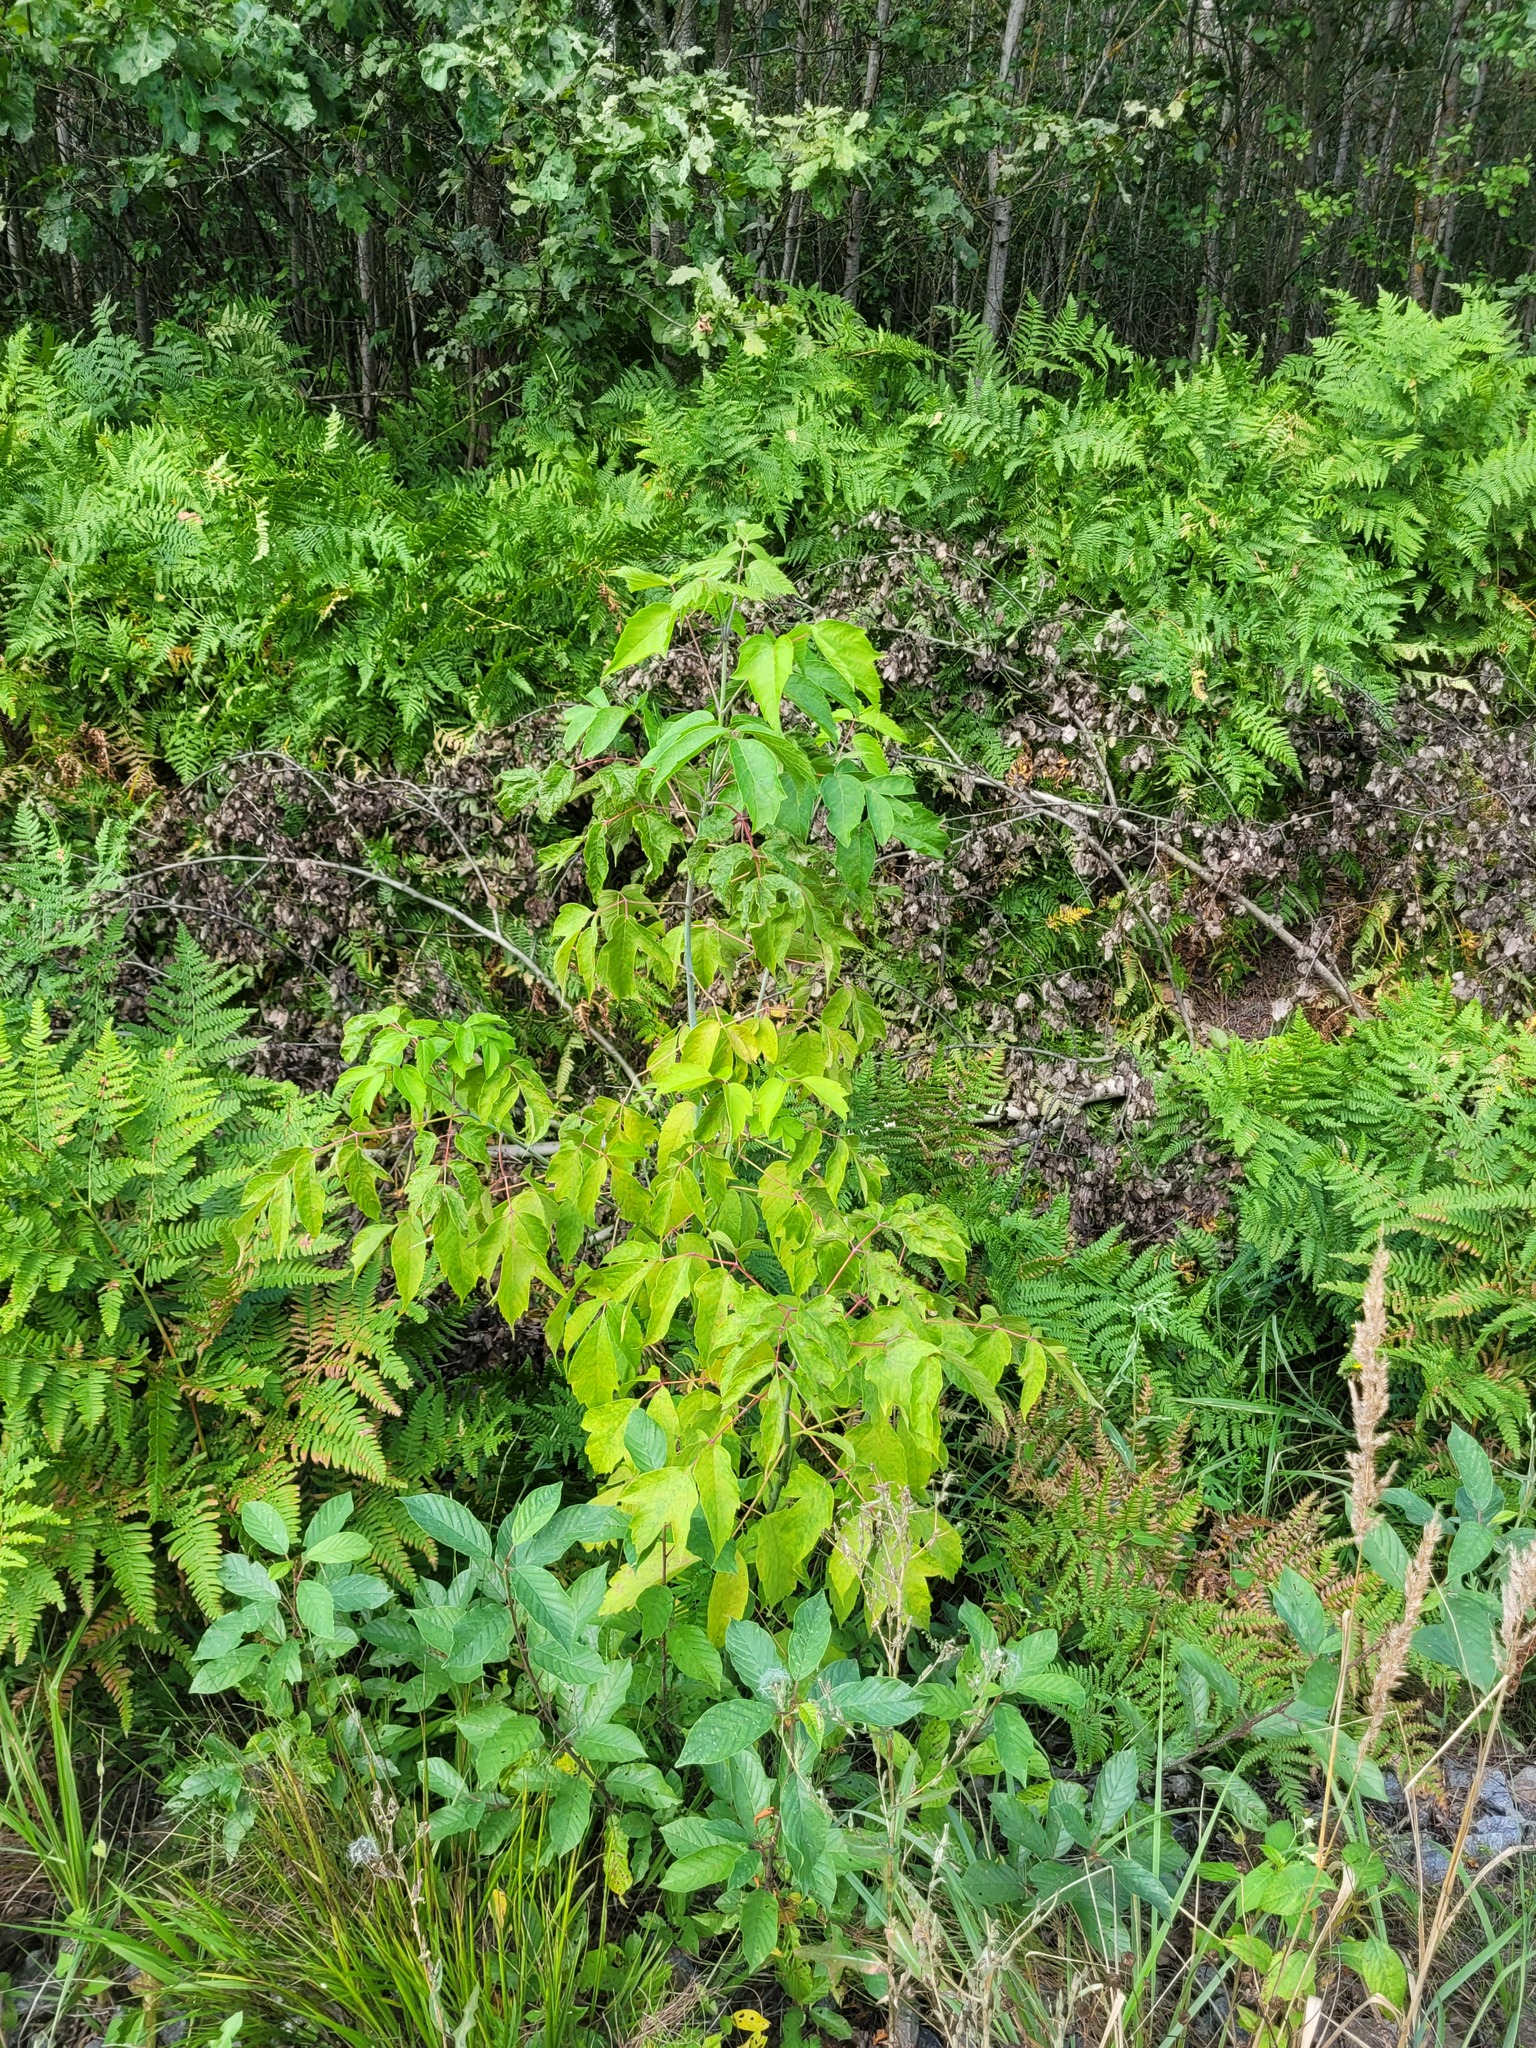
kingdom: Plantae
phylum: Tracheophyta
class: Magnoliopsida
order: Sapindales
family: Sapindaceae
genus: Acer
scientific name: Acer negundo
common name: Ashleaf maple
